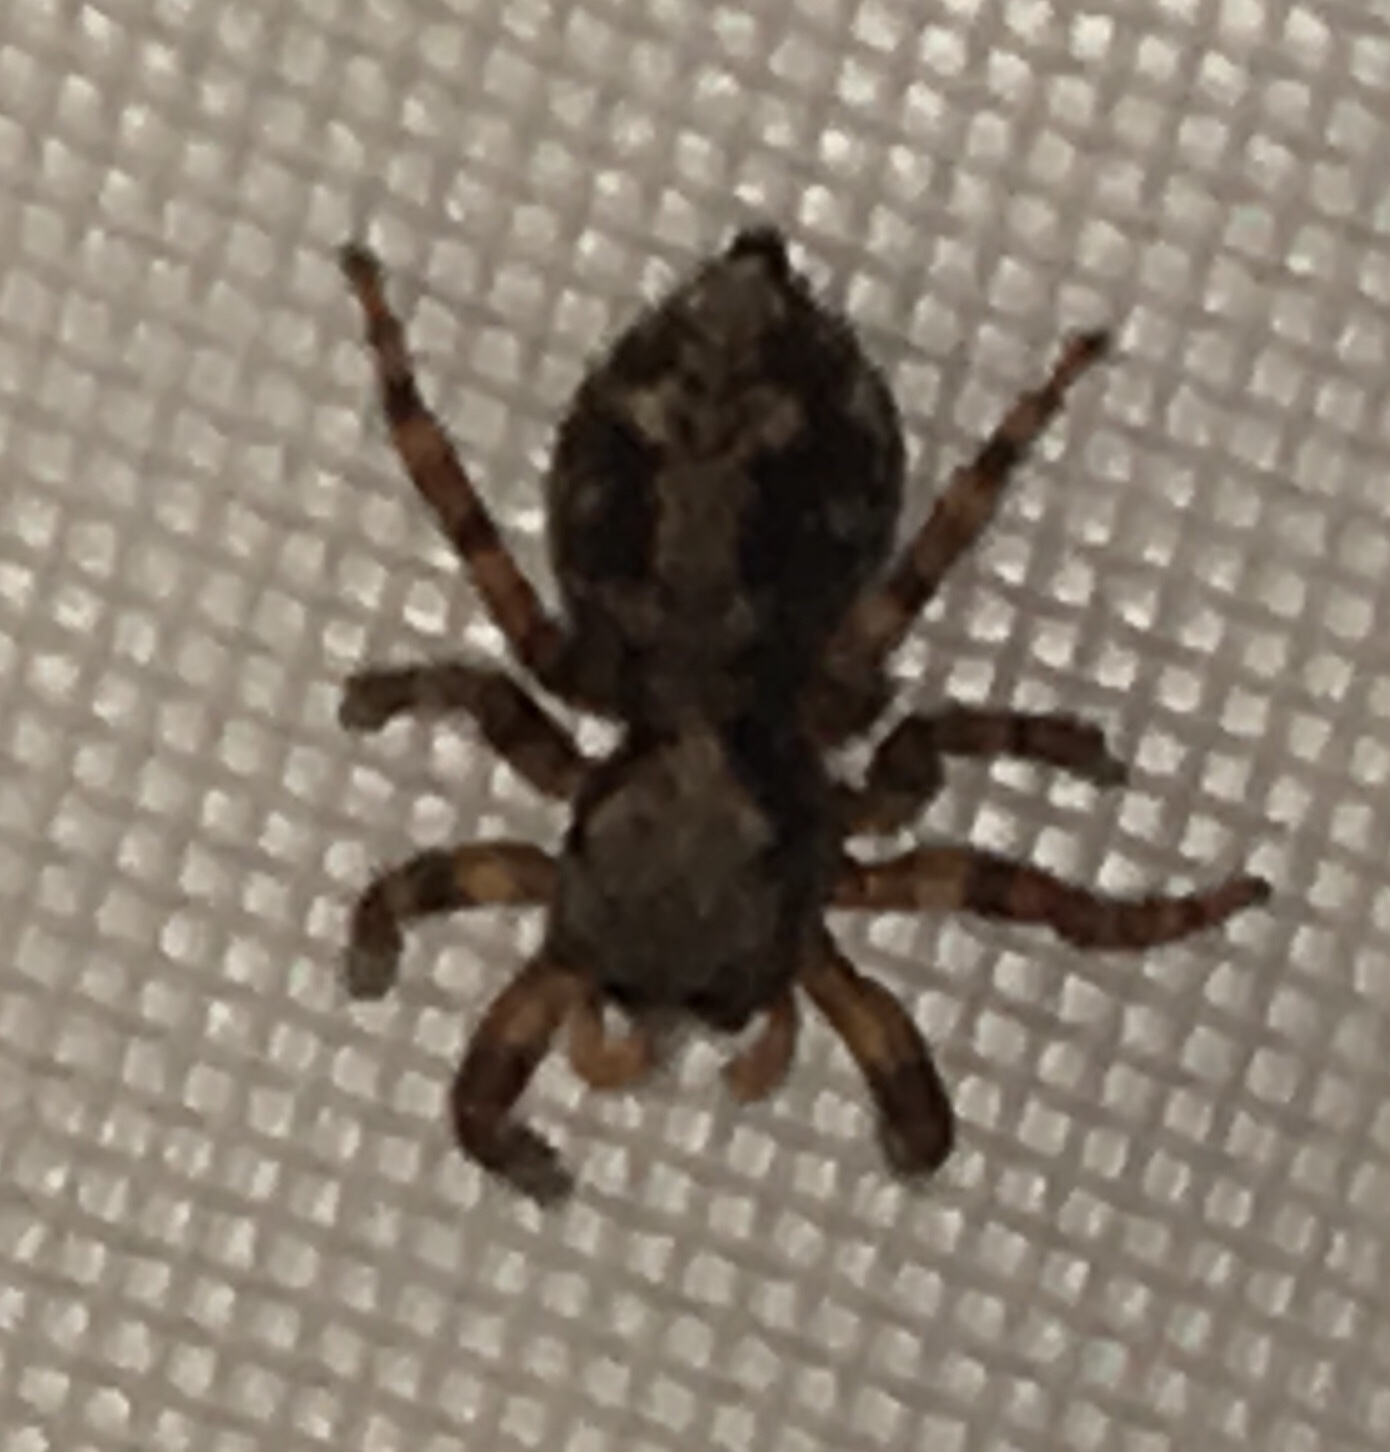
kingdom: Animalia
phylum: Arthropoda
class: Arachnida
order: Araneae
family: Salticidae
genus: Pseudeuophrys
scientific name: Pseudeuophrys lanigera
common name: Jumping spider
